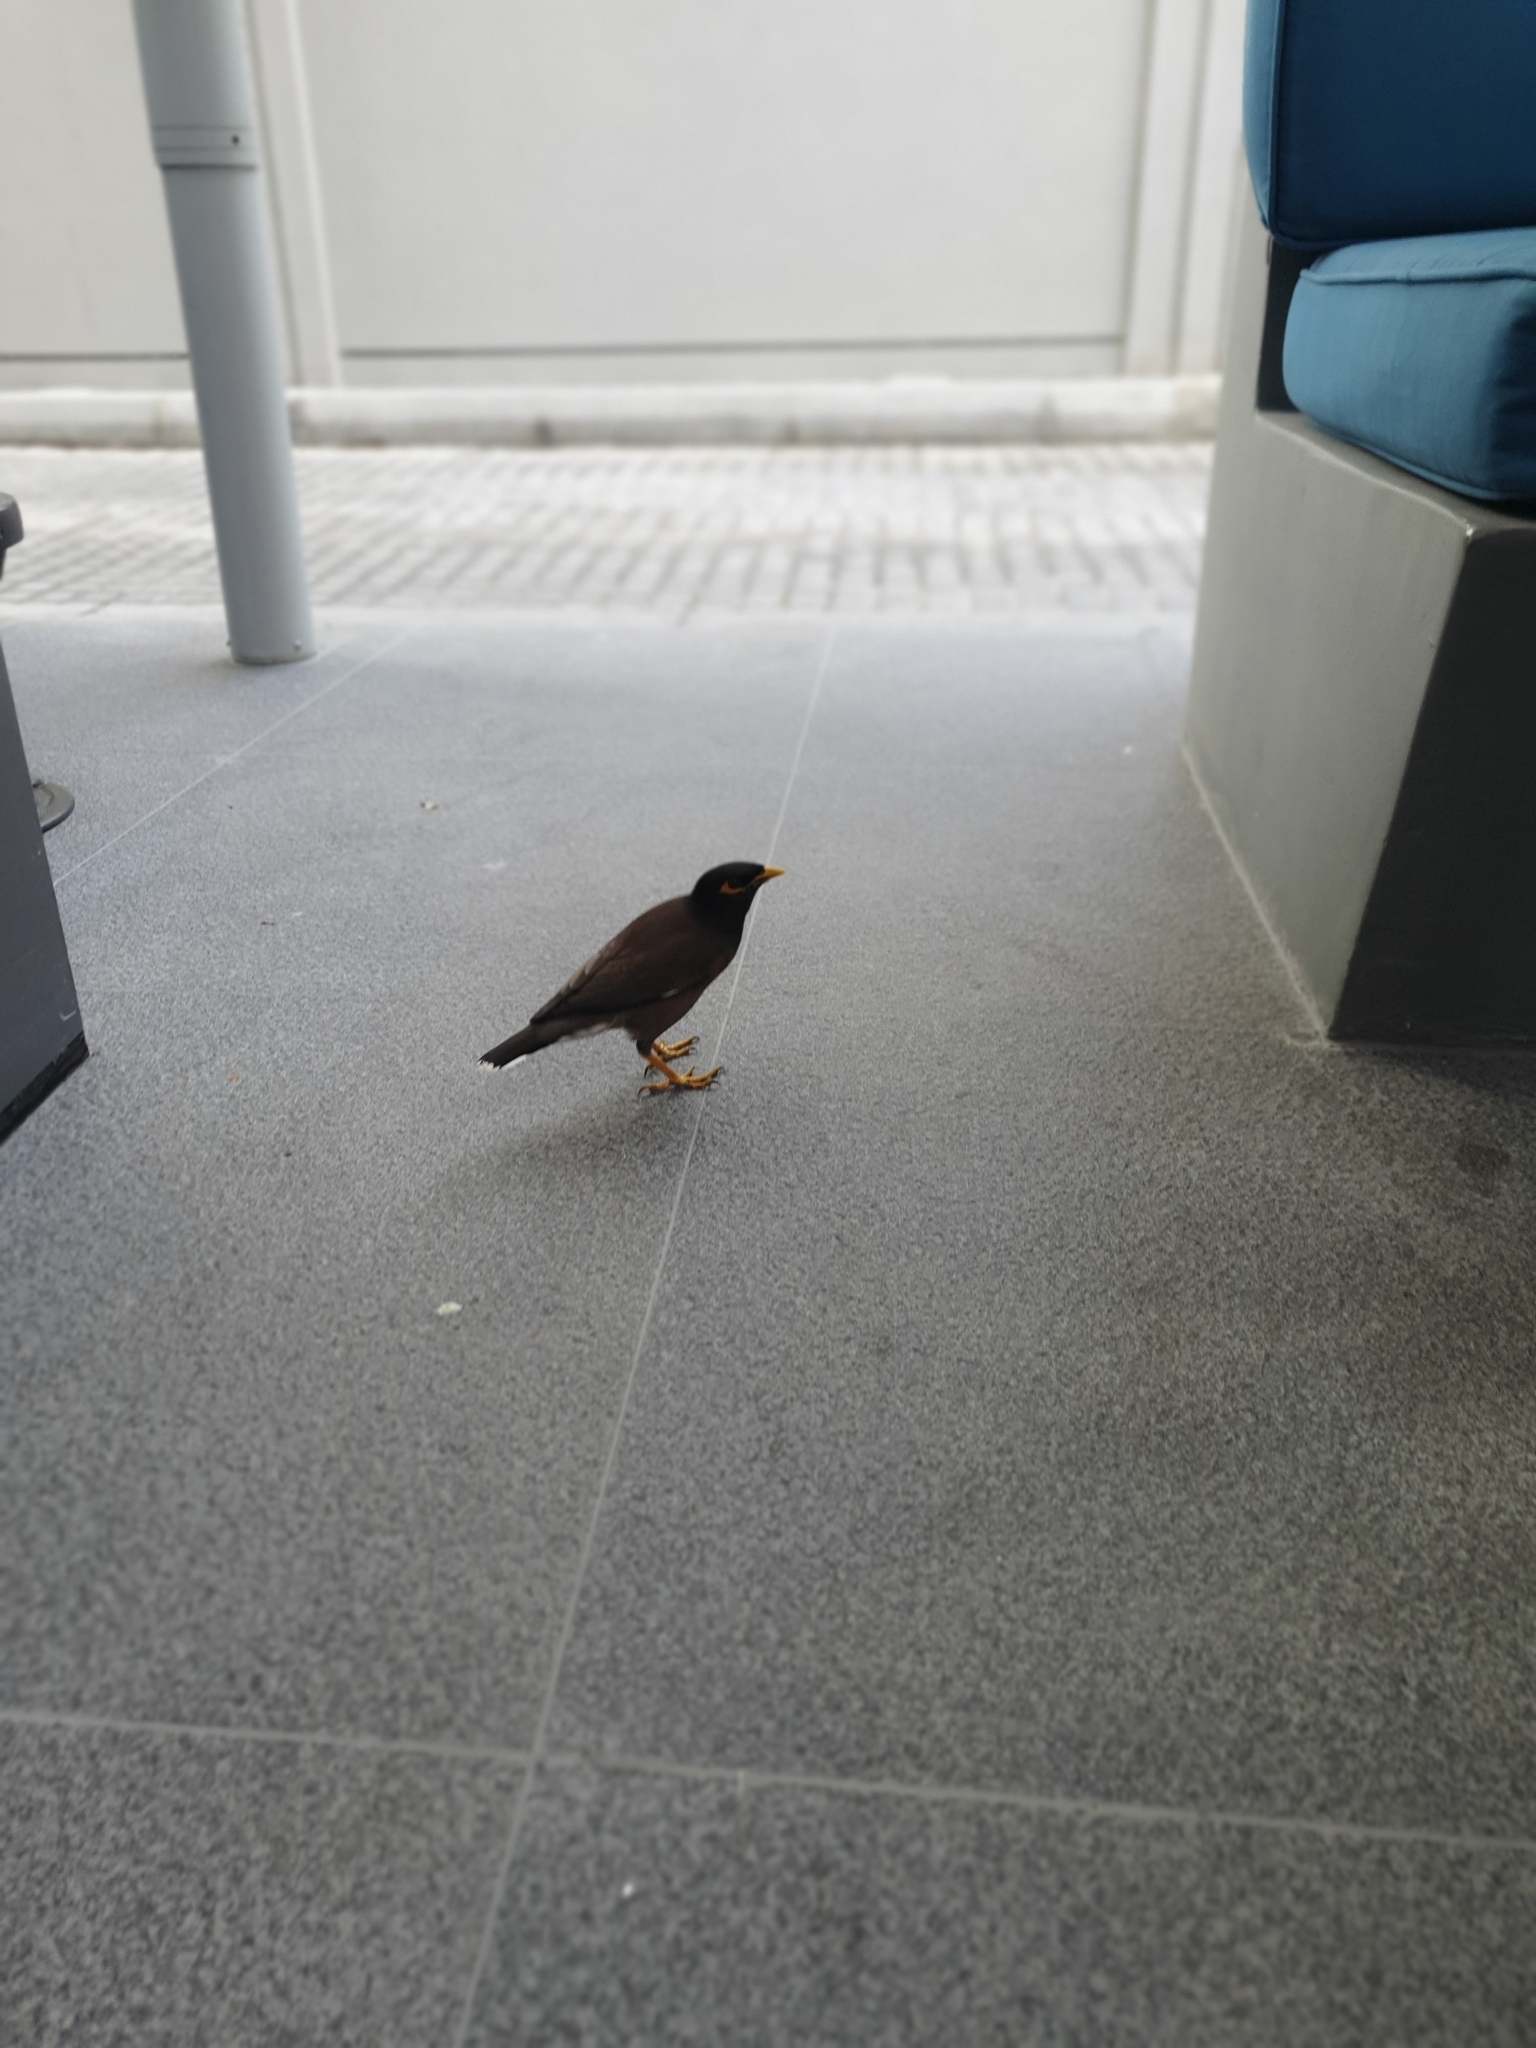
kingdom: Animalia
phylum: Chordata
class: Aves
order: Passeriformes
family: Sturnidae
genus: Acridotheres
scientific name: Acridotheres tristis
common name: Common myna
